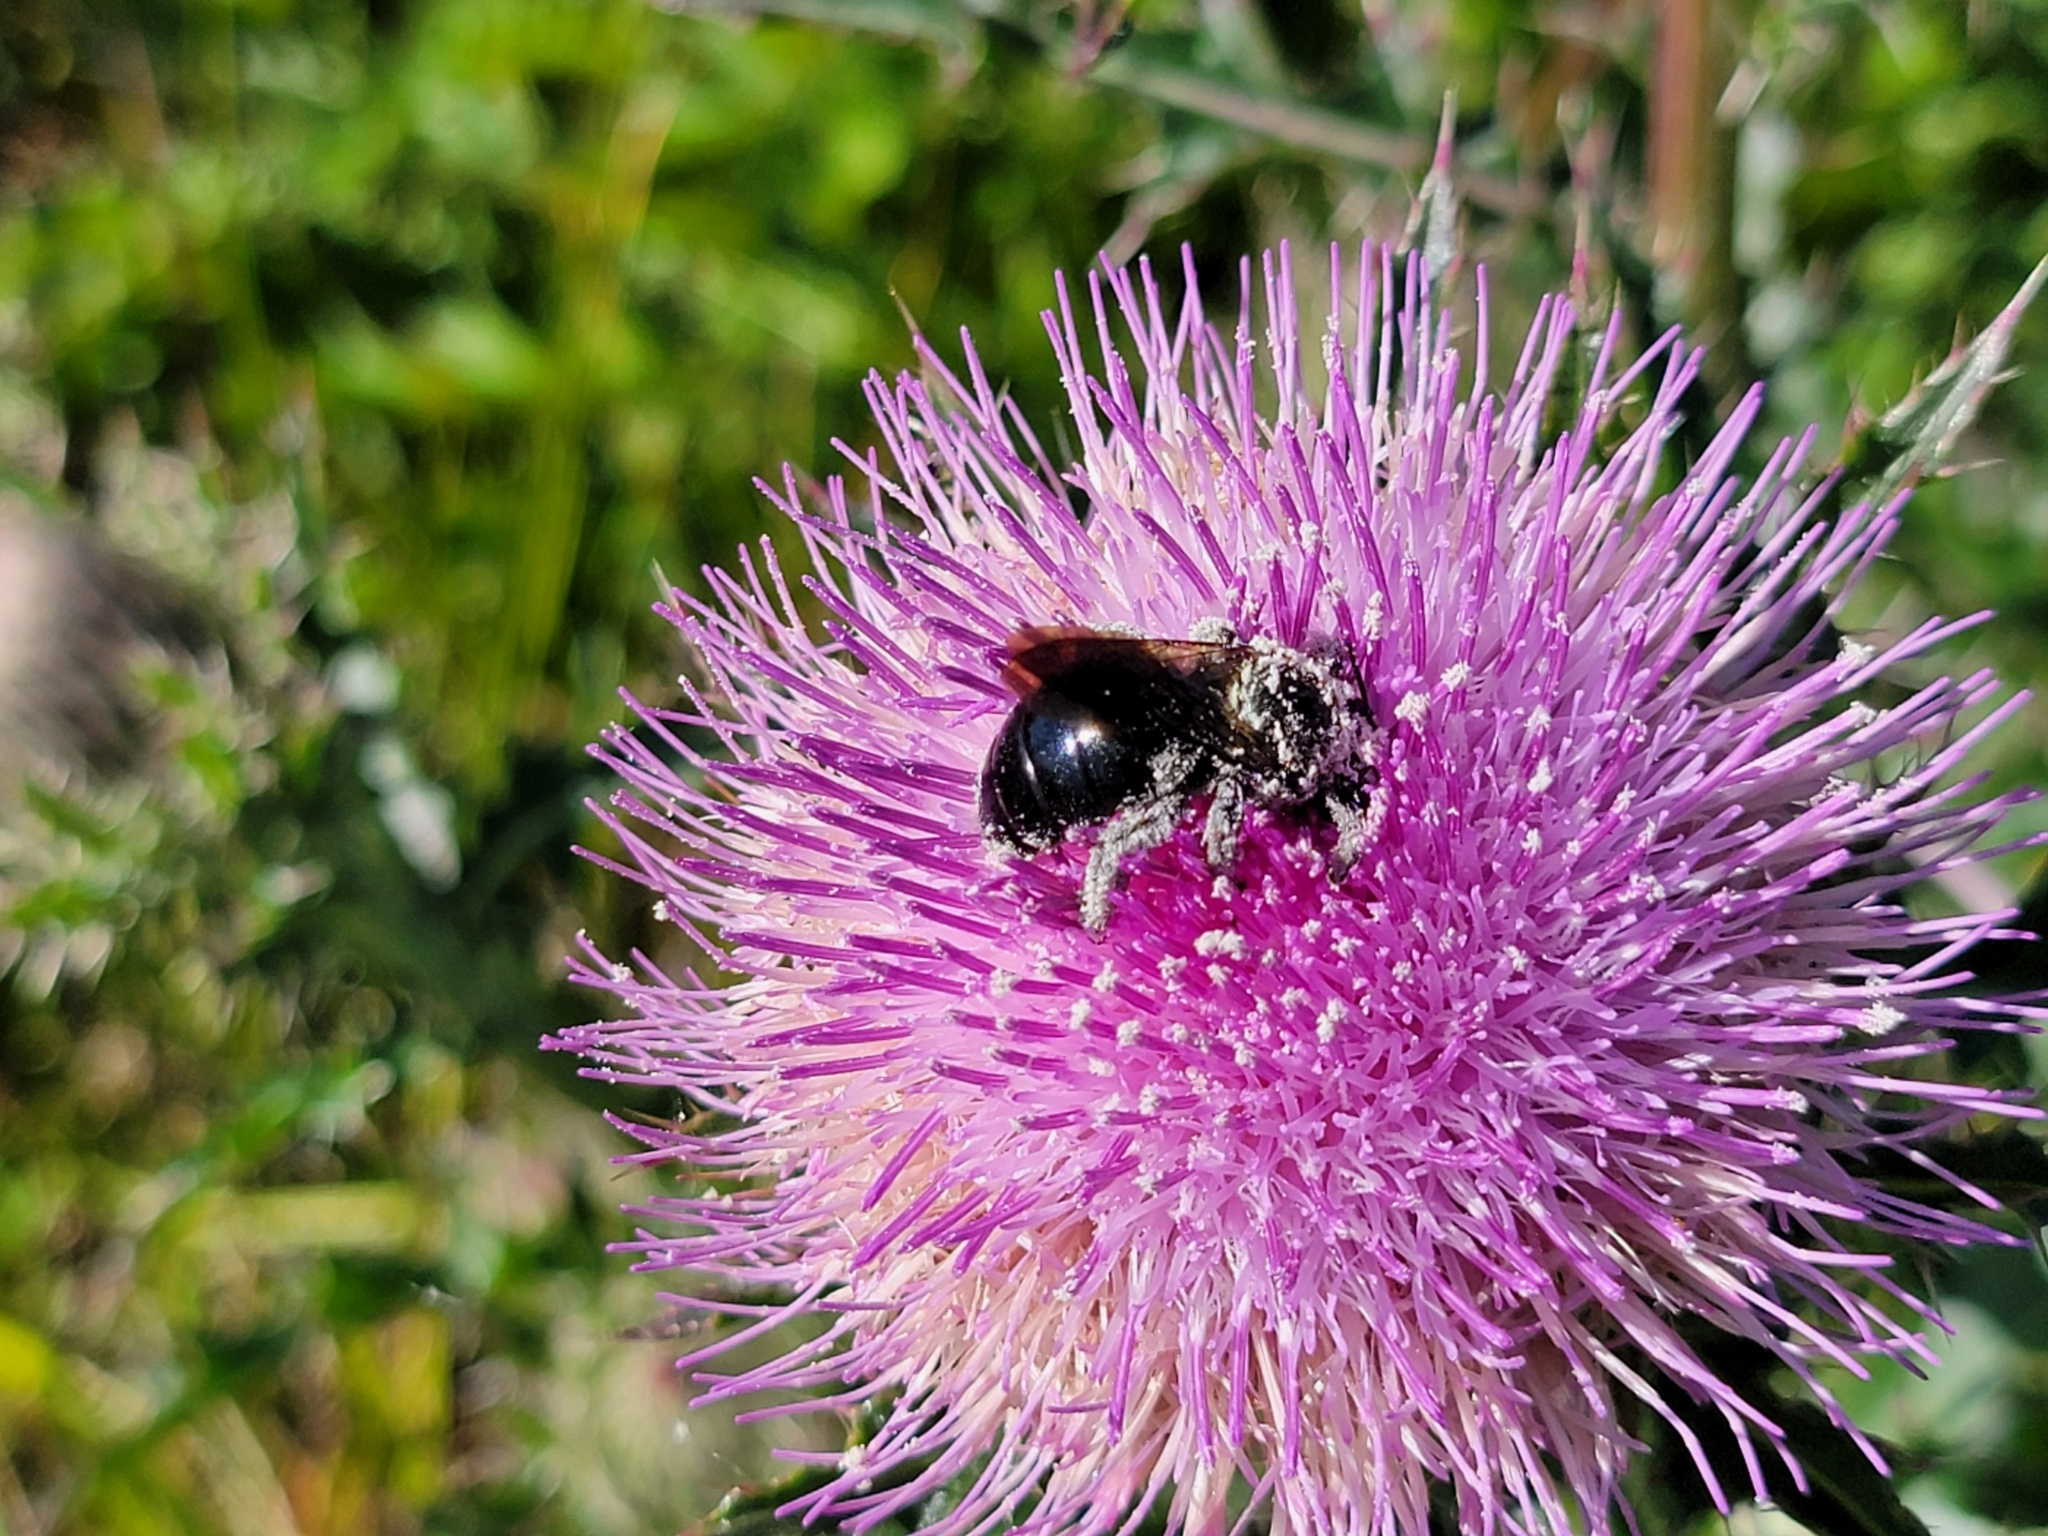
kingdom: Animalia
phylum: Arthropoda
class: Insecta
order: Hymenoptera
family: Apidae
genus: Xylocopa
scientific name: Xylocopa micans
